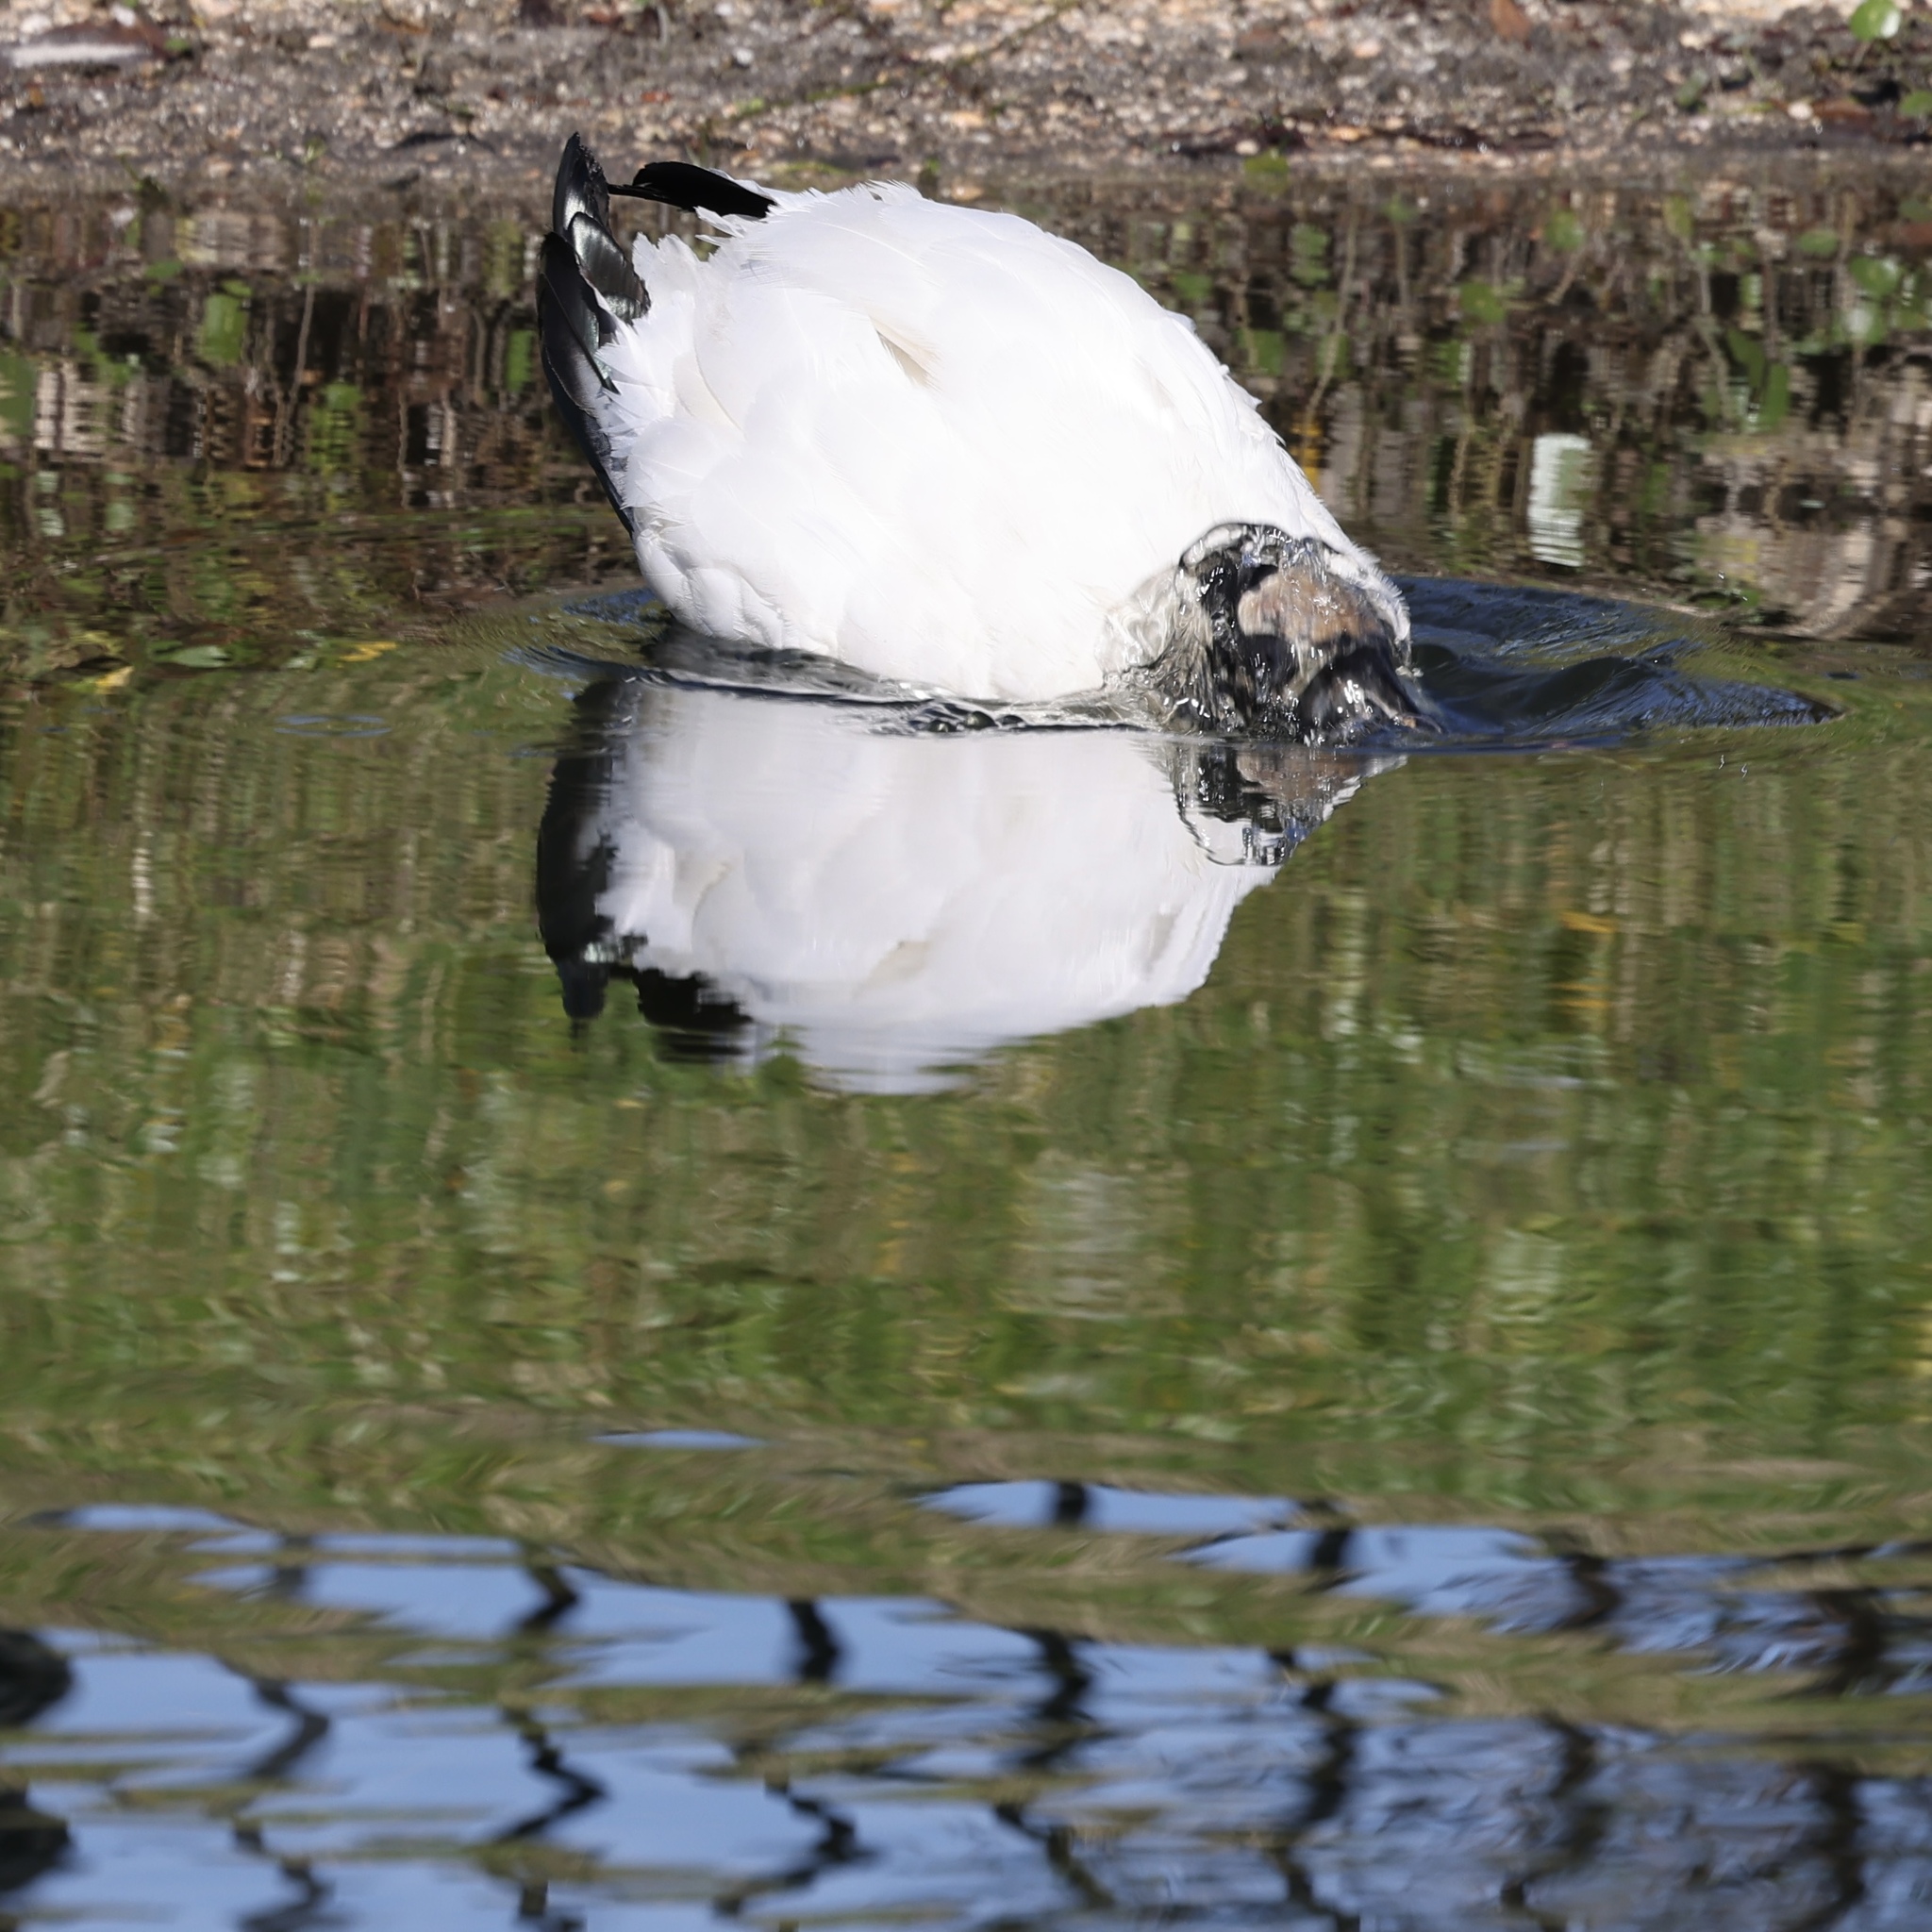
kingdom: Animalia
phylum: Chordata
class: Aves
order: Ciconiiformes
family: Ciconiidae
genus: Mycteria
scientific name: Mycteria americana
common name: Wood stork
